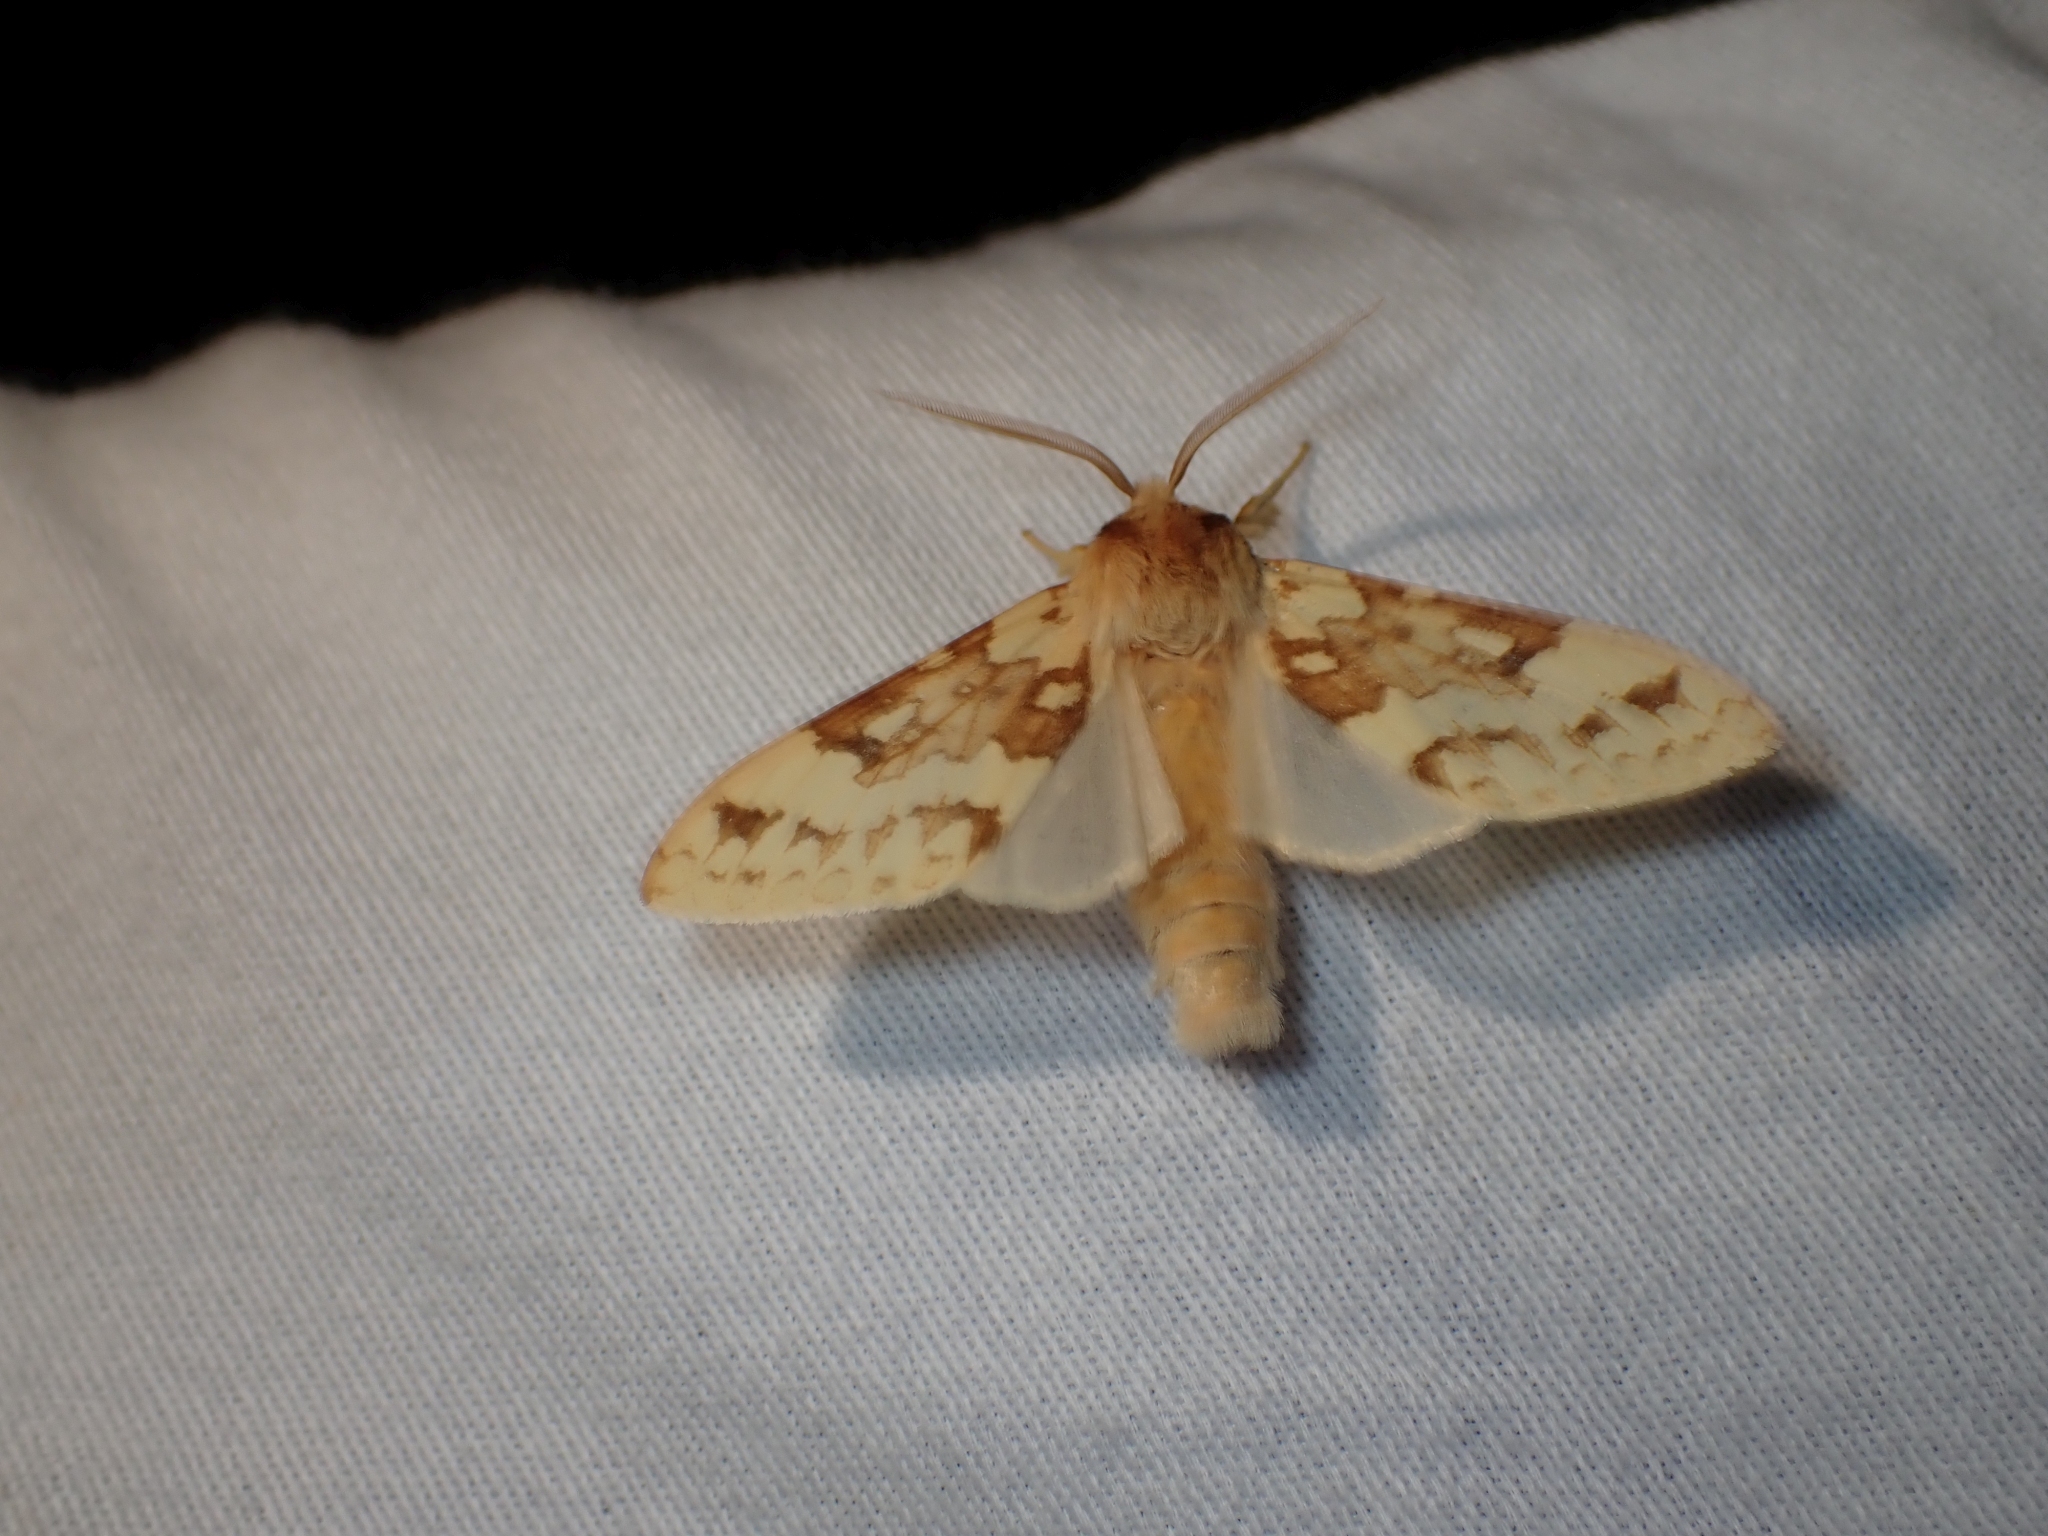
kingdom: Animalia
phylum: Arthropoda
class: Insecta
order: Lepidoptera
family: Erebidae
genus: Lophocampa
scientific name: Lophocampa maculata
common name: Spotted tussock moth
